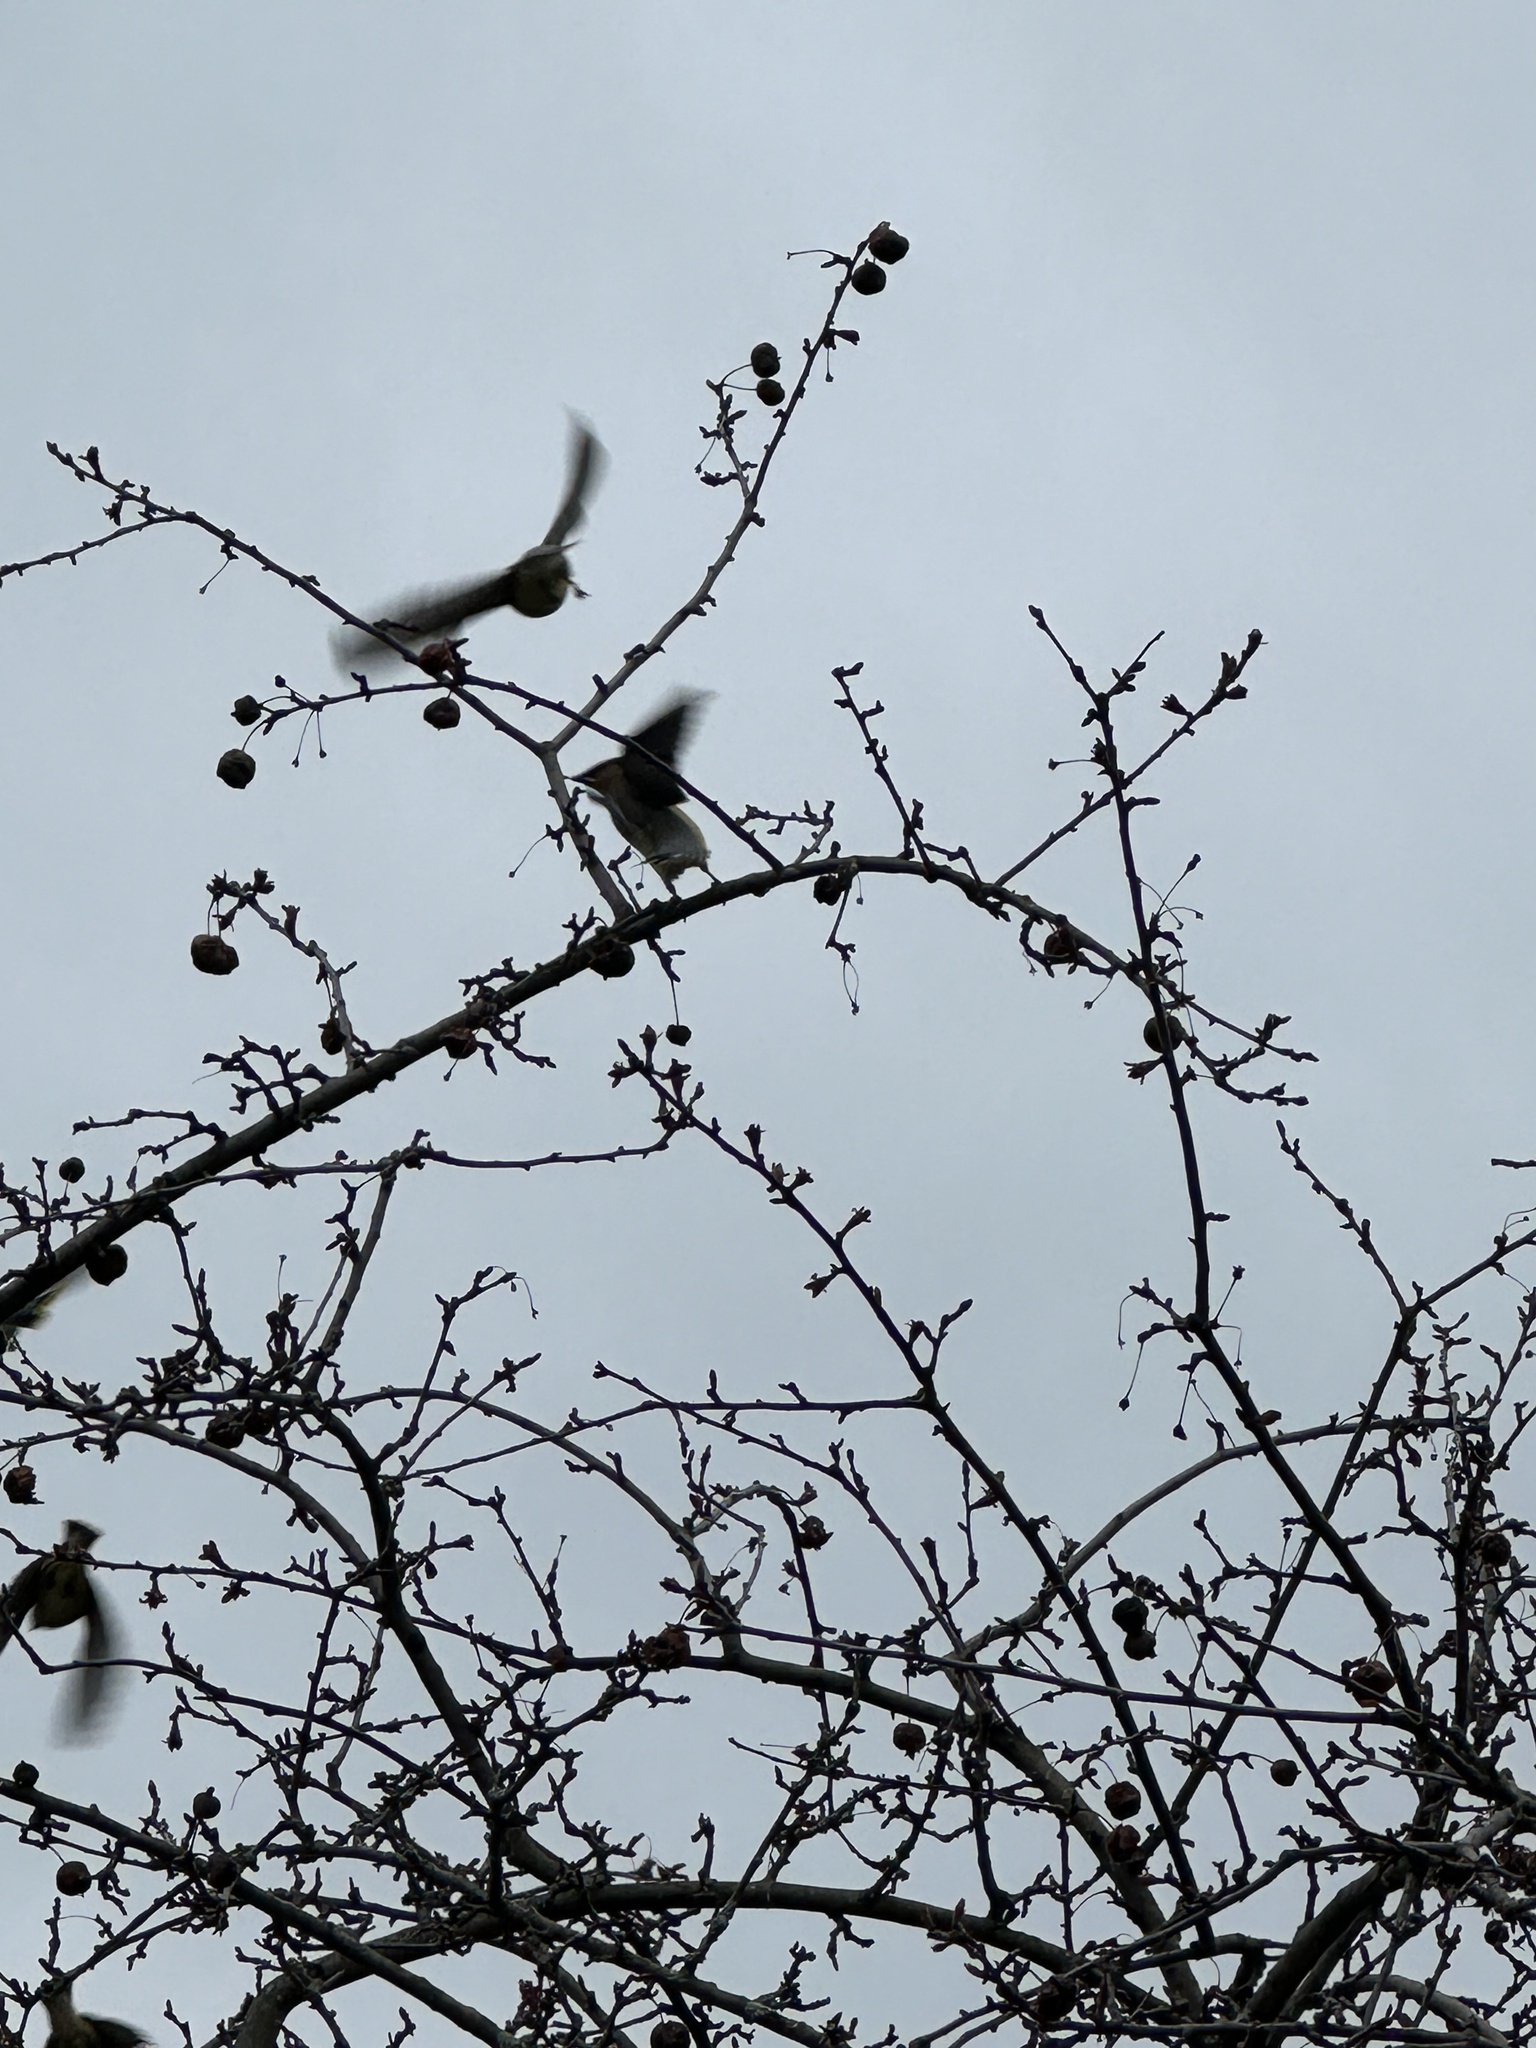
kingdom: Animalia
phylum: Chordata
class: Aves
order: Passeriformes
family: Bombycillidae
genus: Bombycilla
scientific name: Bombycilla cedrorum
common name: Cedar waxwing
